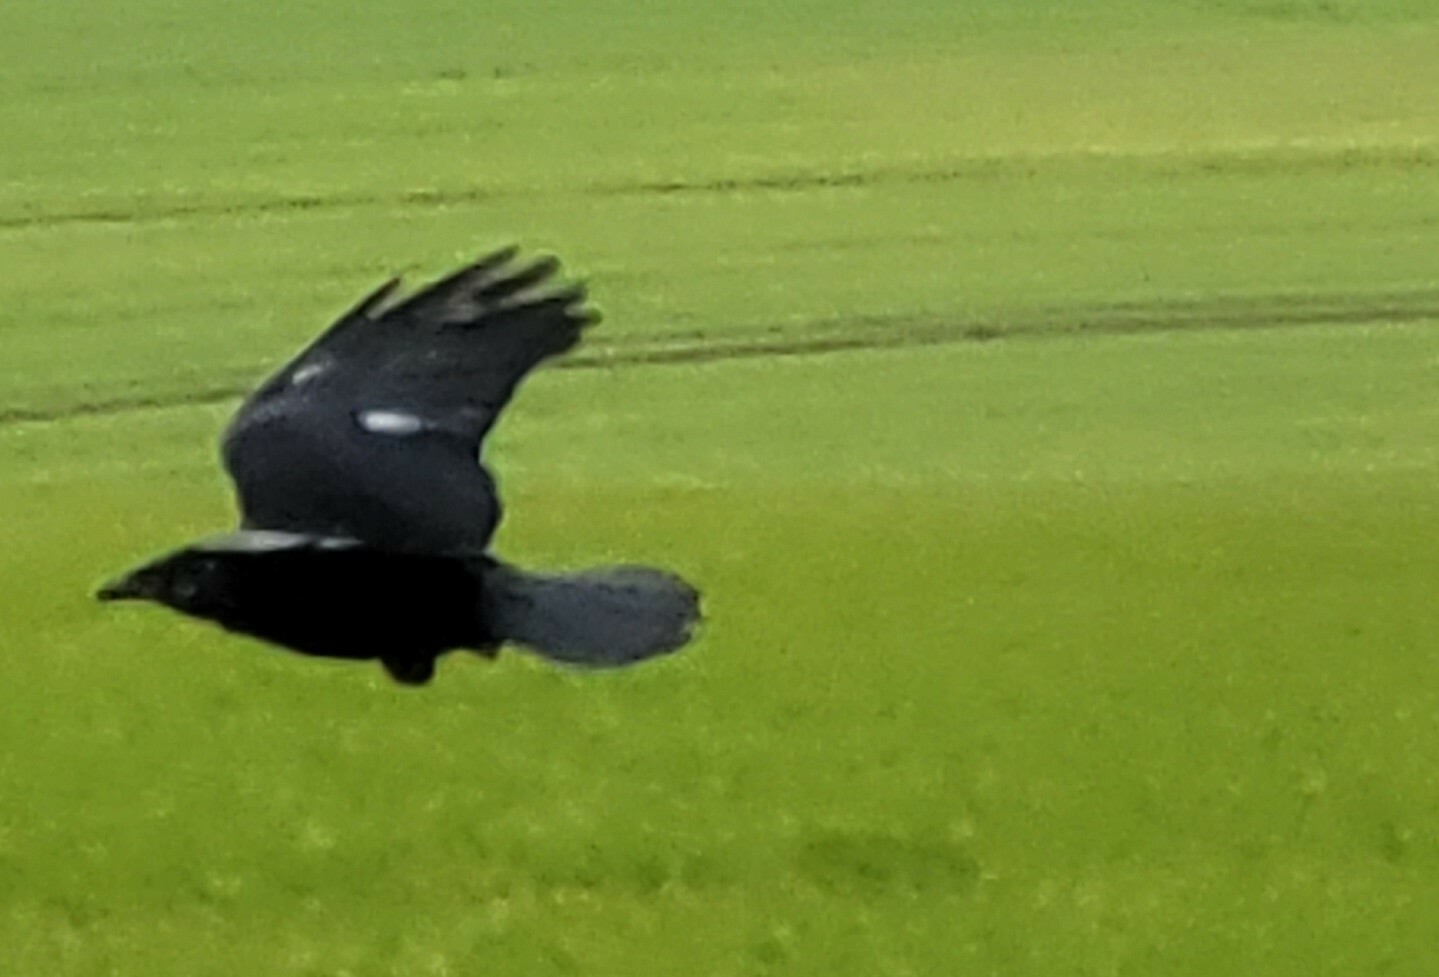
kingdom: Animalia
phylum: Chordata
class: Aves
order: Passeriformes
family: Corvidae
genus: Corvus
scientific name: Corvus corone
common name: Carrion crow
